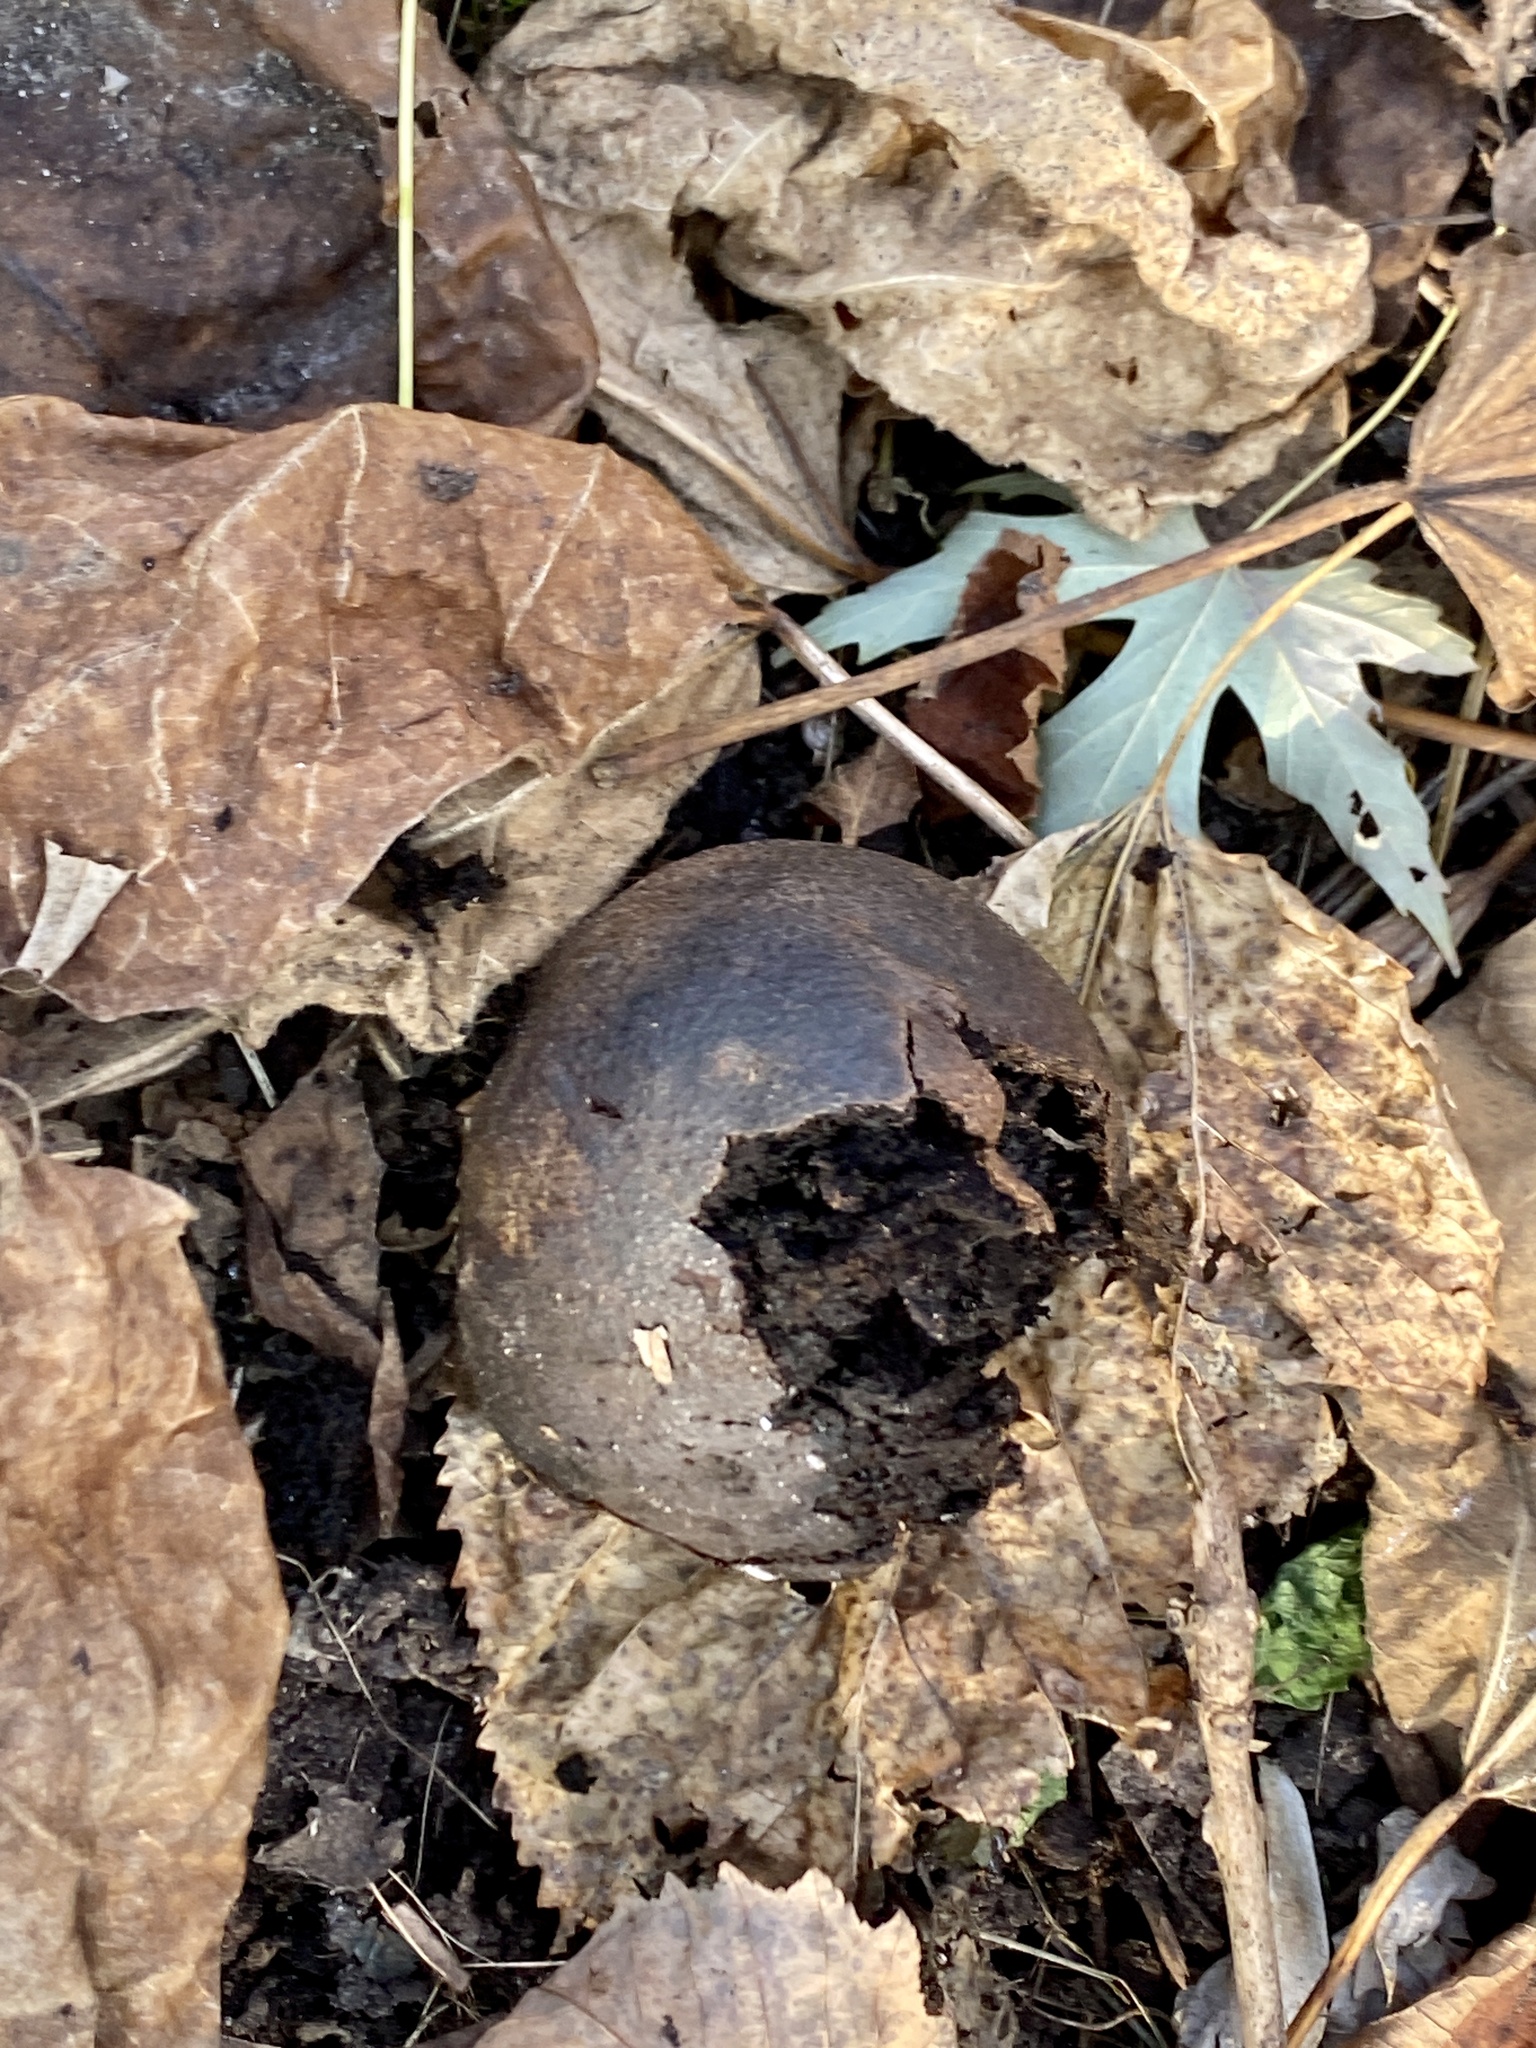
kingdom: Plantae
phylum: Tracheophyta
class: Magnoliopsida
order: Fagales
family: Juglandaceae
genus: Juglans
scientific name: Juglans nigra
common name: Black walnut
